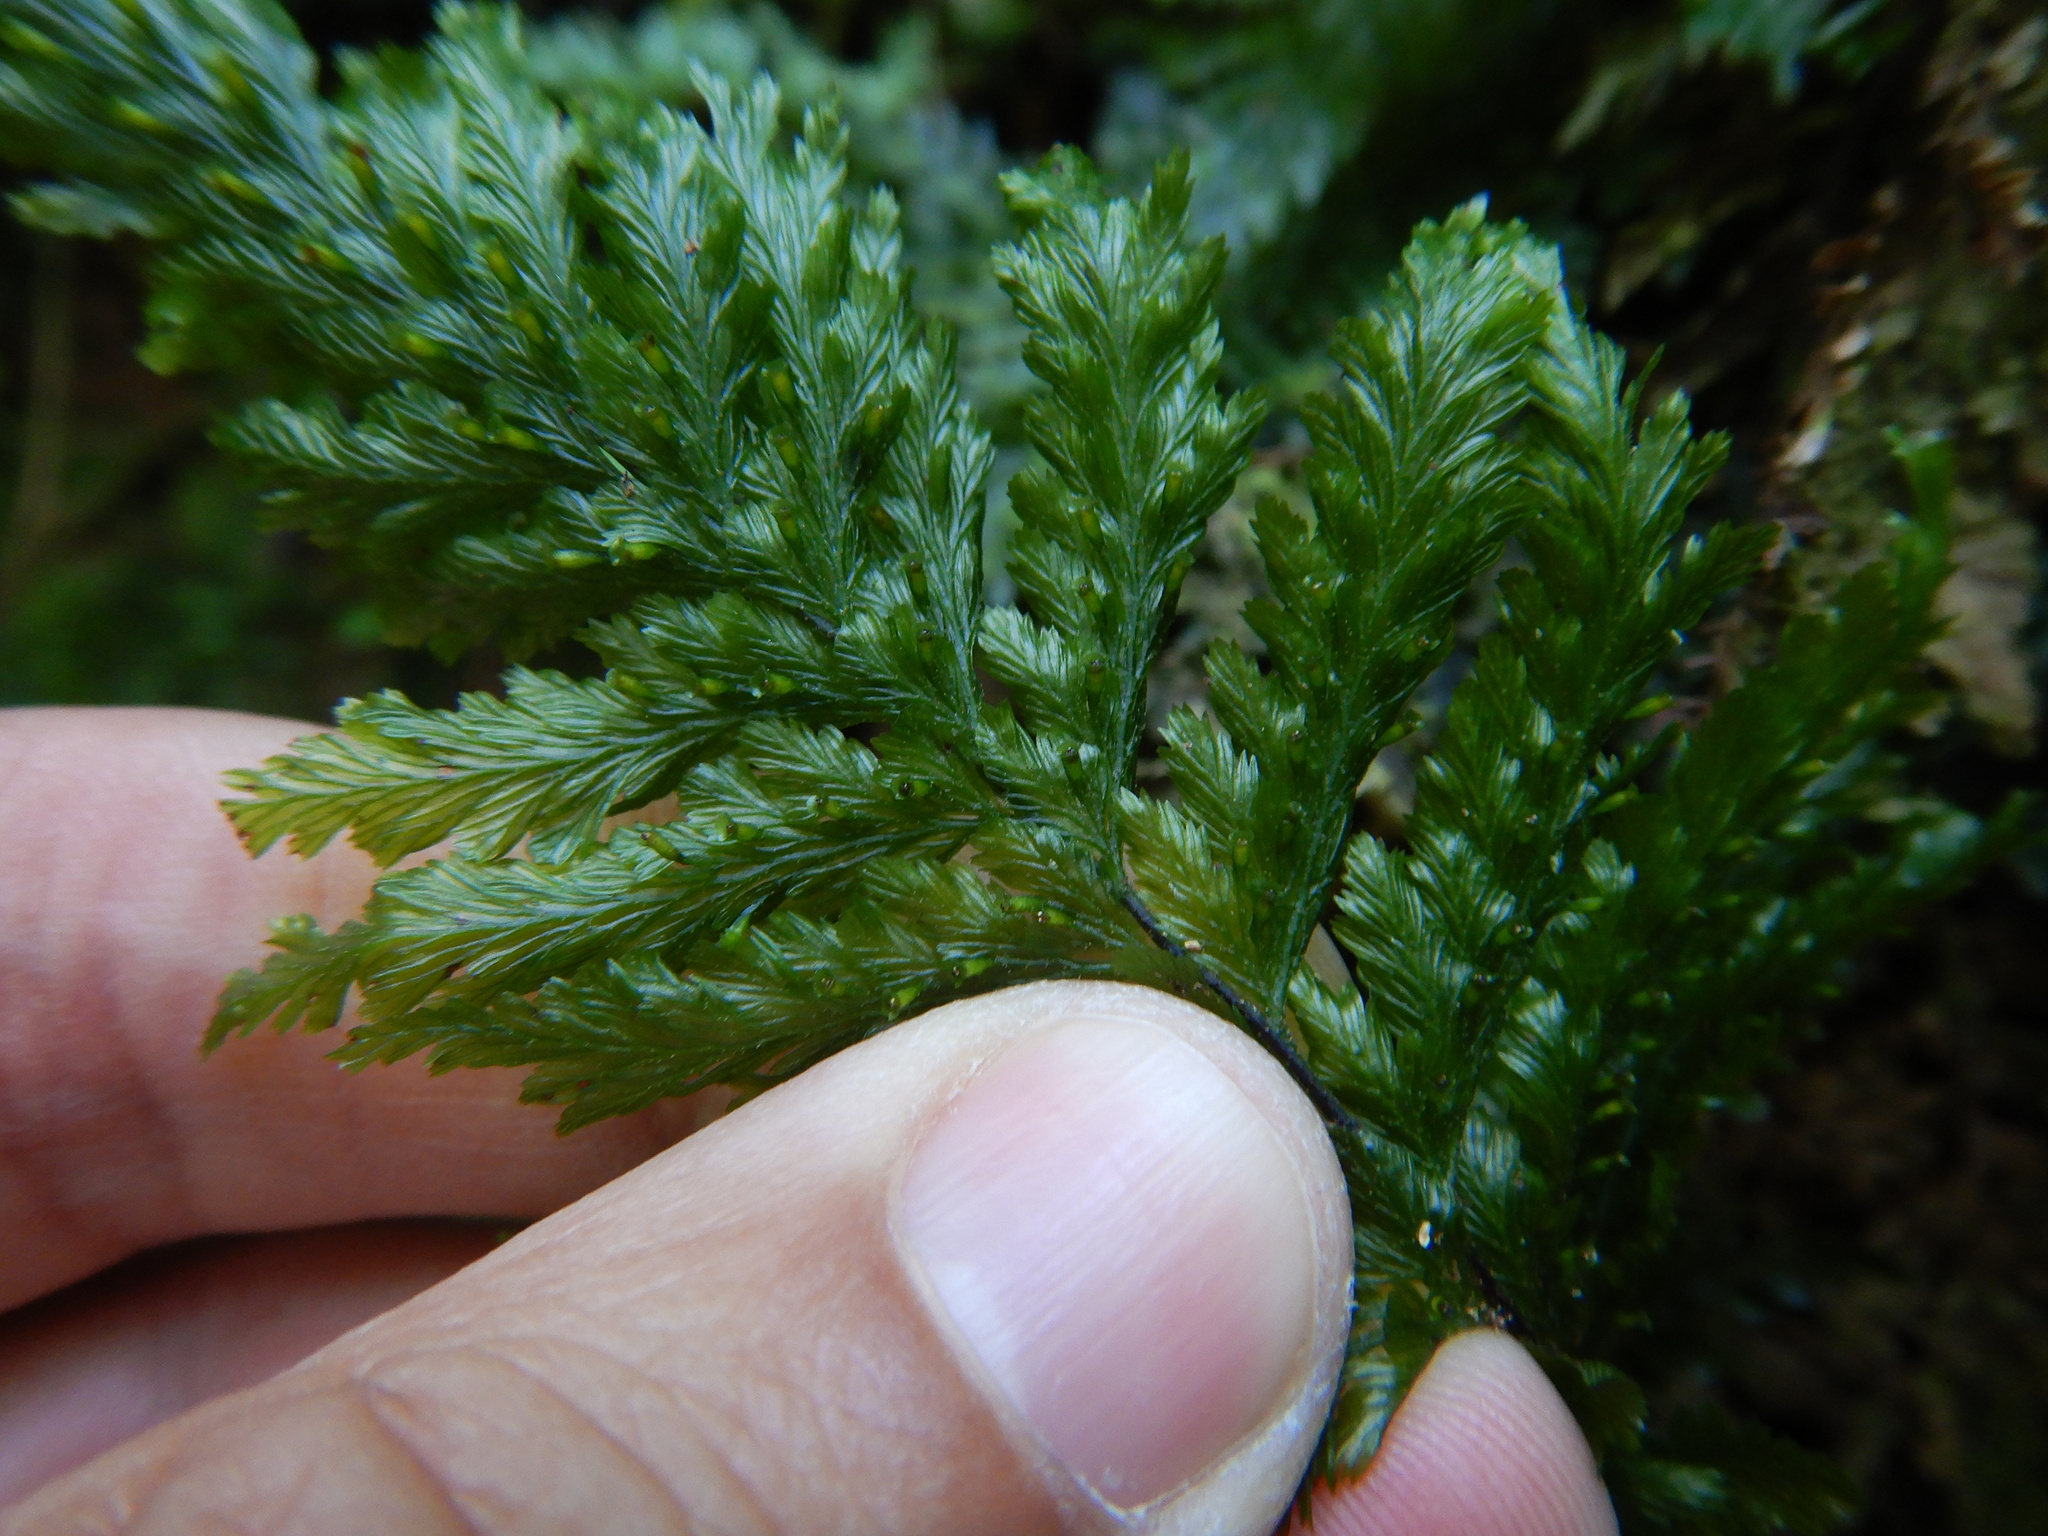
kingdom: Plantae
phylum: Tracheophyta
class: Polypodiopsida
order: Hymenophyllales
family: Hymenophyllaceae
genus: Abrodictyum
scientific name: Abrodictyum dentatum
